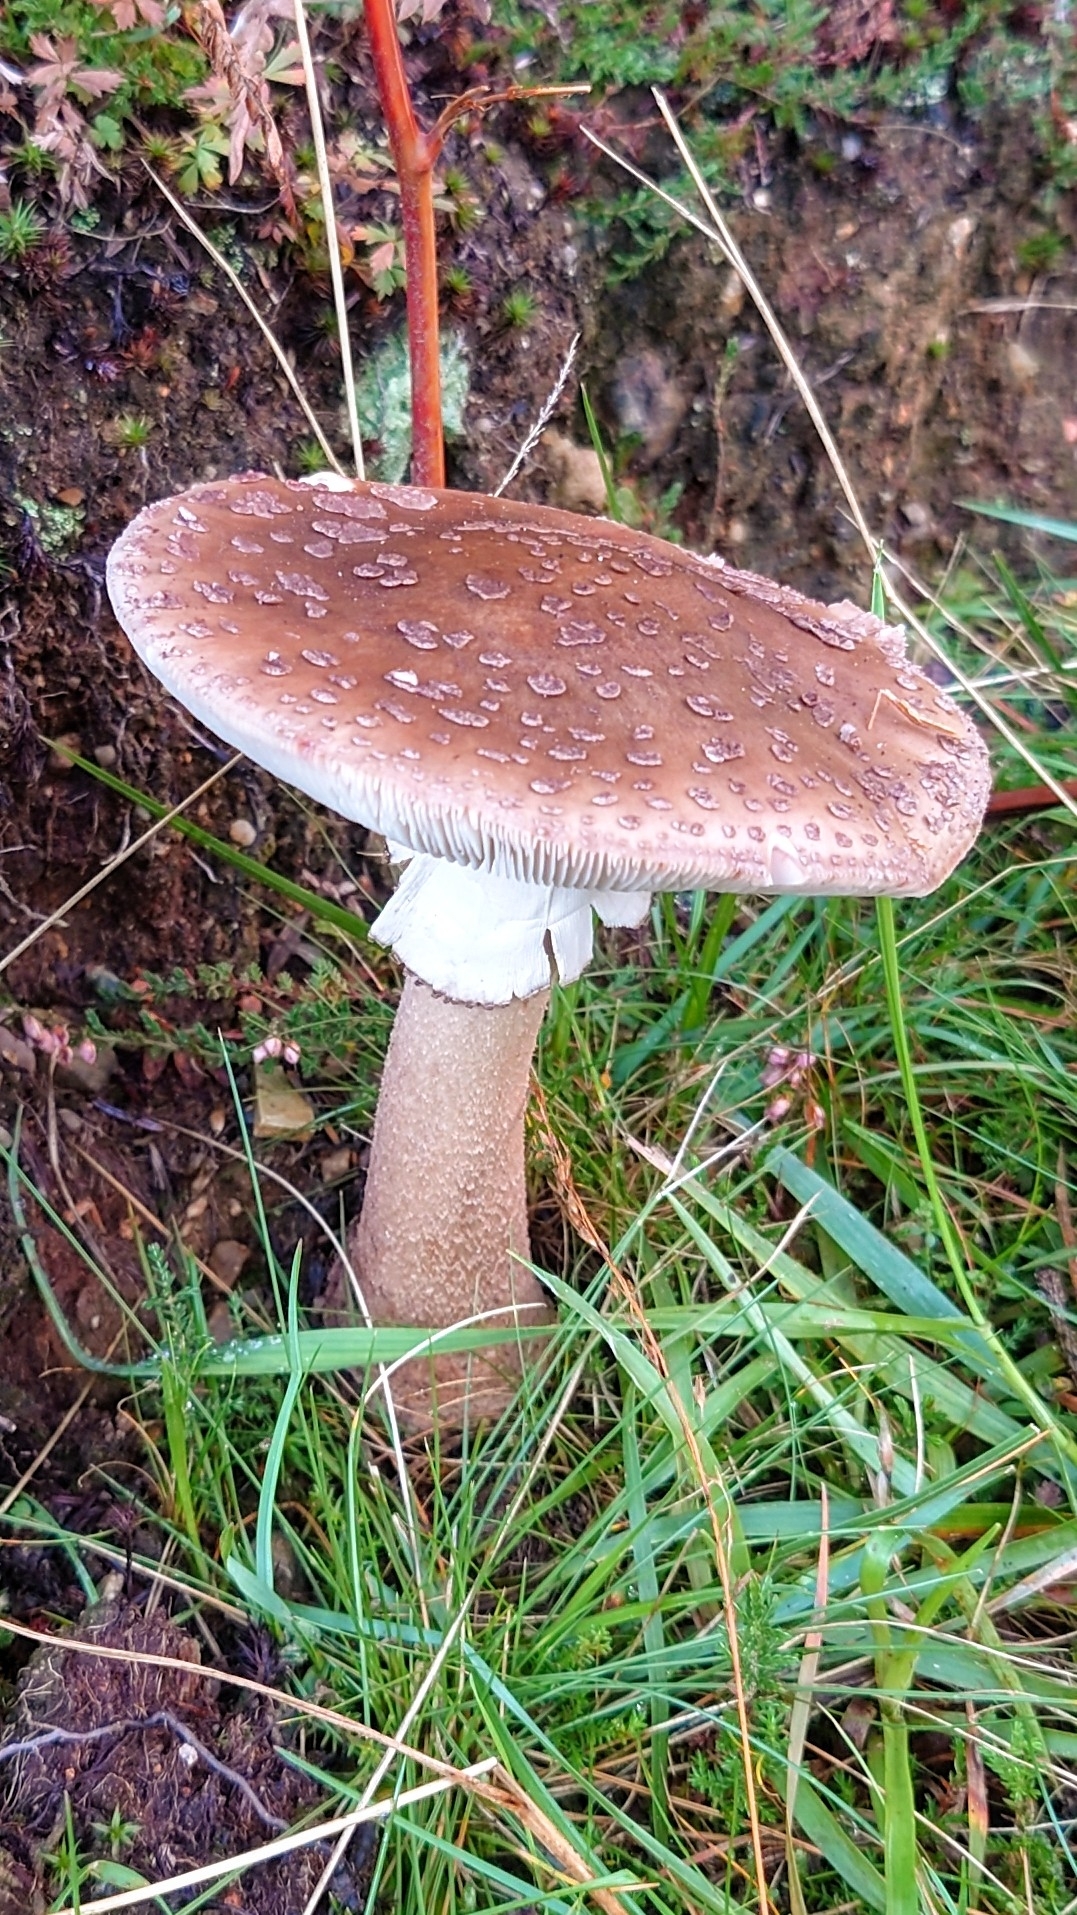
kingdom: Fungi
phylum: Basidiomycota
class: Agaricomycetes
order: Agaricales
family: Amanitaceae
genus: Amanita
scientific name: Amanita rubescens
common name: Blusher
